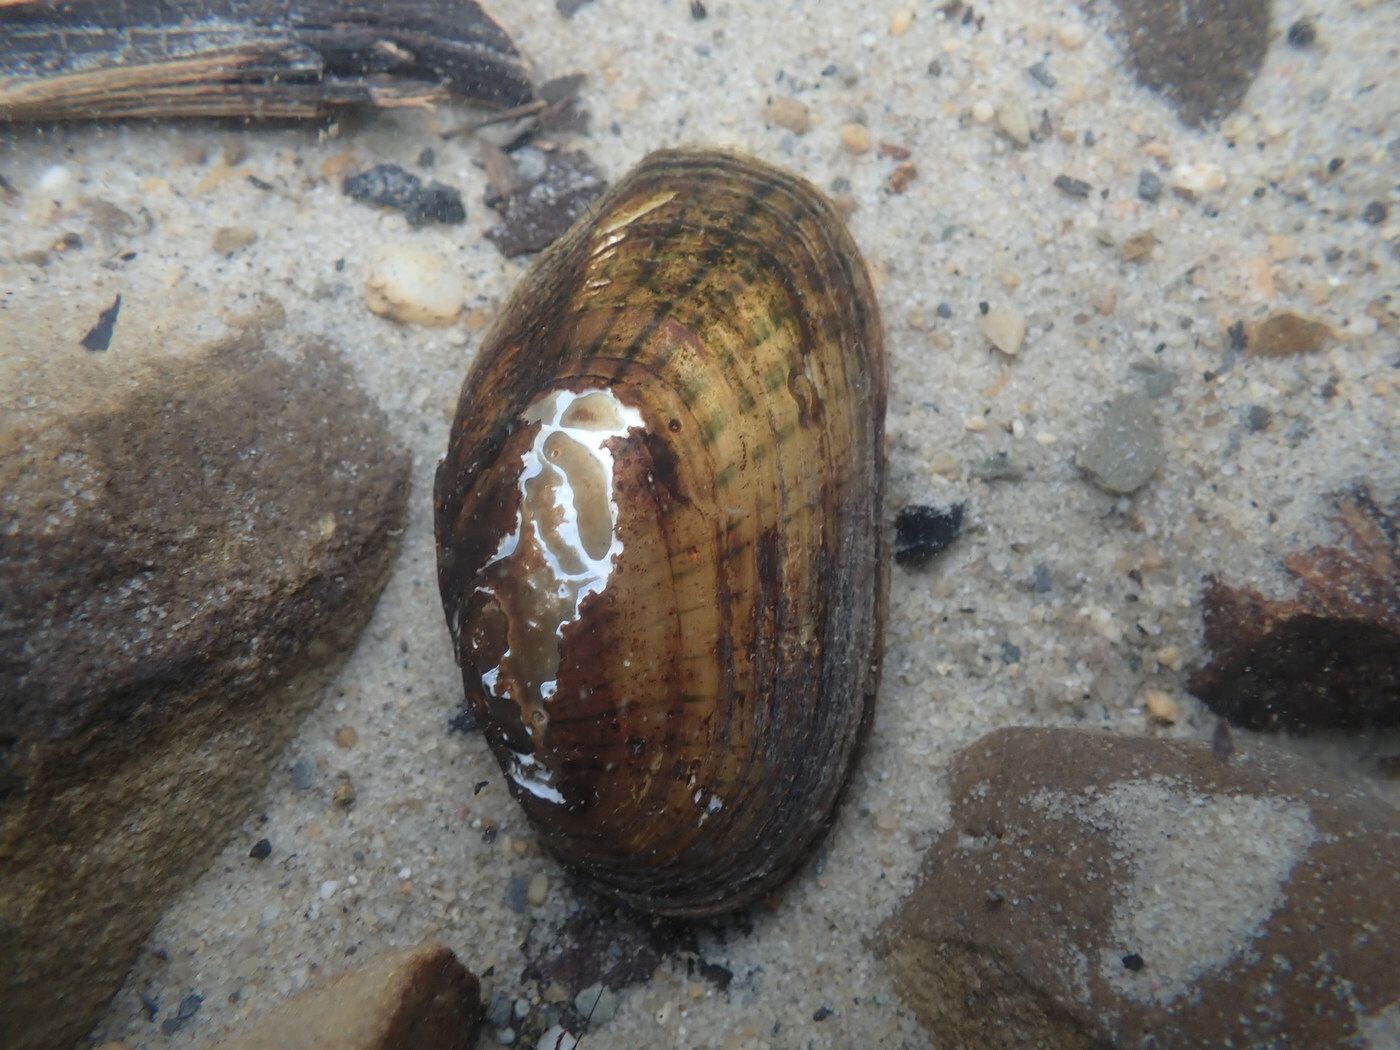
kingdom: Animalia
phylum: Mollusca
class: Bivalvia
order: Unionida
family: Unionidae
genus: Cambarunio
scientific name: Cambarunio iris
